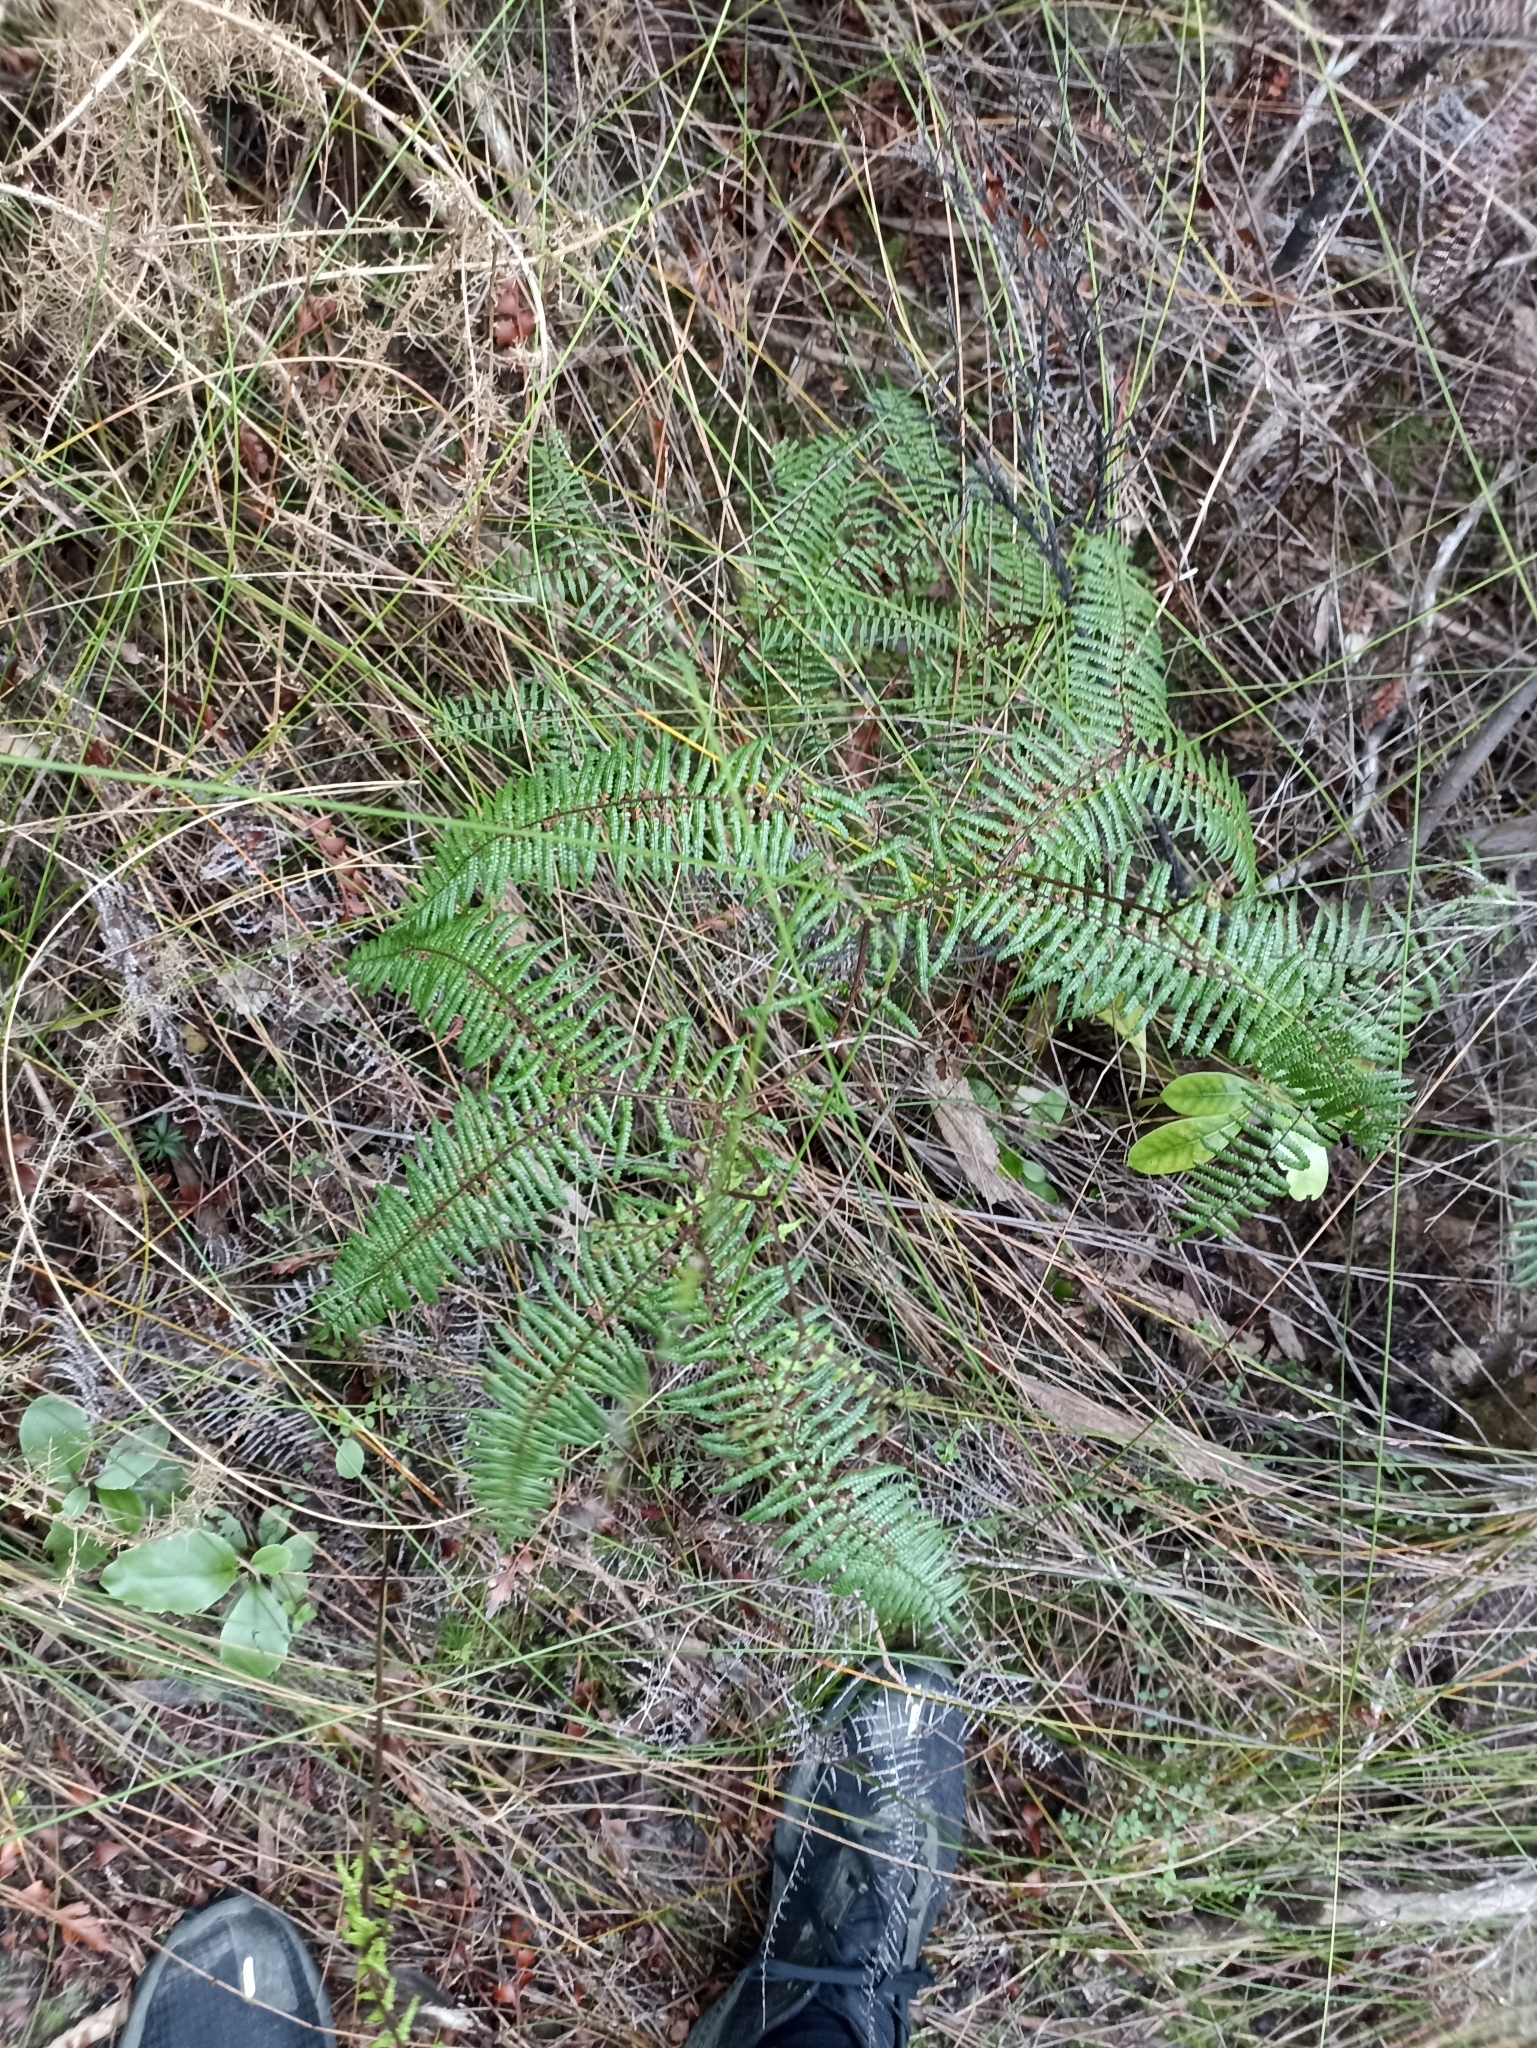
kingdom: Plantae
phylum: Tracheophyta
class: Polypodiopsida
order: Gleicheniales
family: Gleicheniaceae
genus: Gleichenia
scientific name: Gleichenia microphylla
